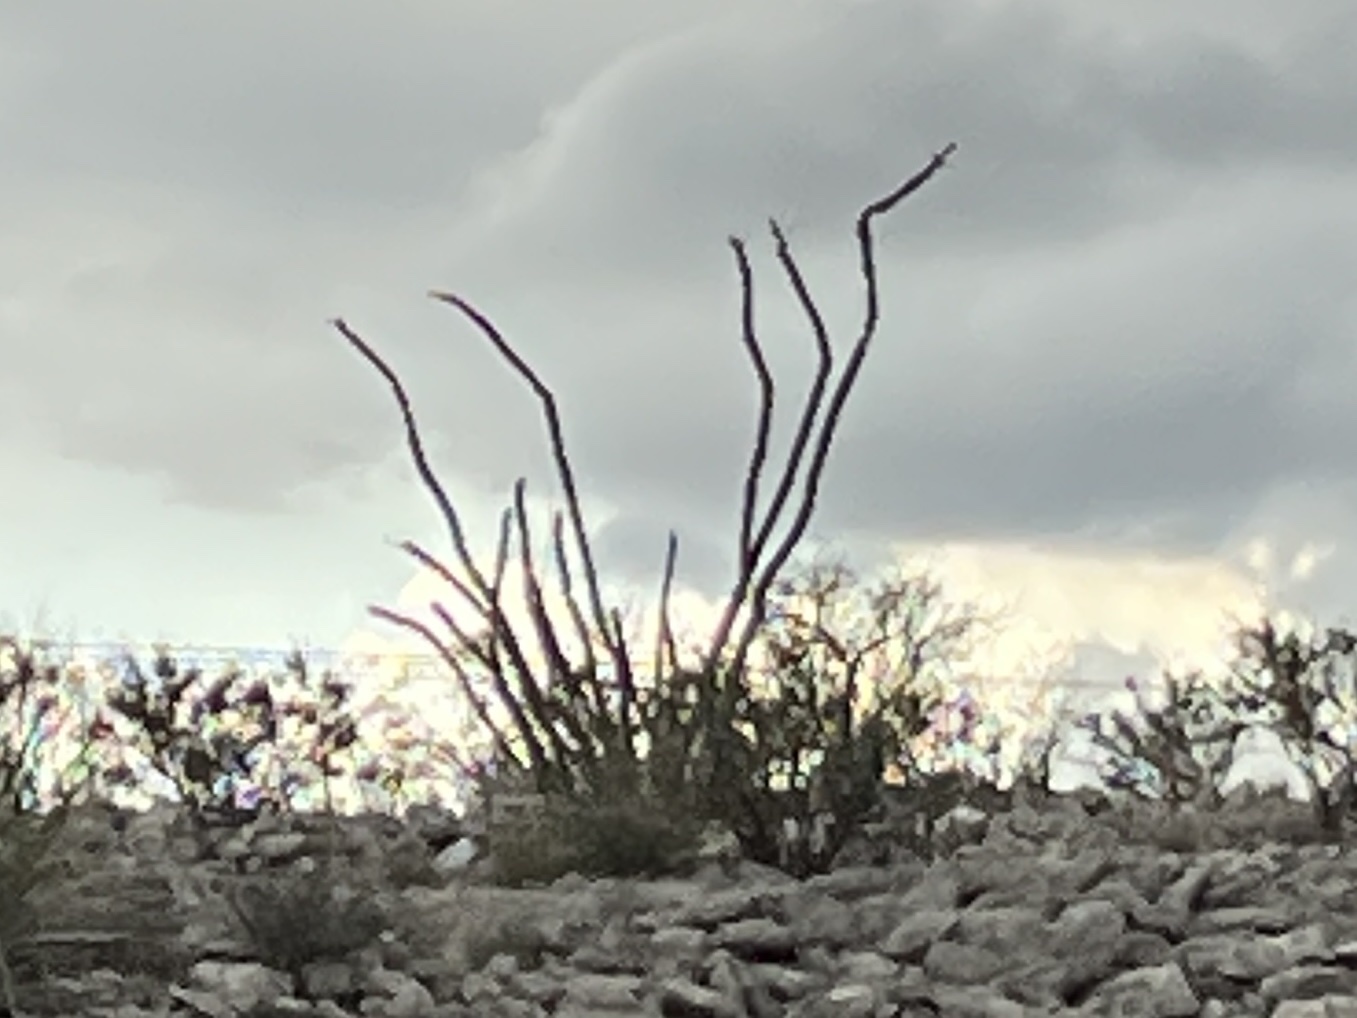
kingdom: Plantae
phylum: Tracheophyta
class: Magnoliopsida
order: Ericales
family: Fouquieriaceae
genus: Fouquieria
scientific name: Fouquieria splendens
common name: Vine-cactus
